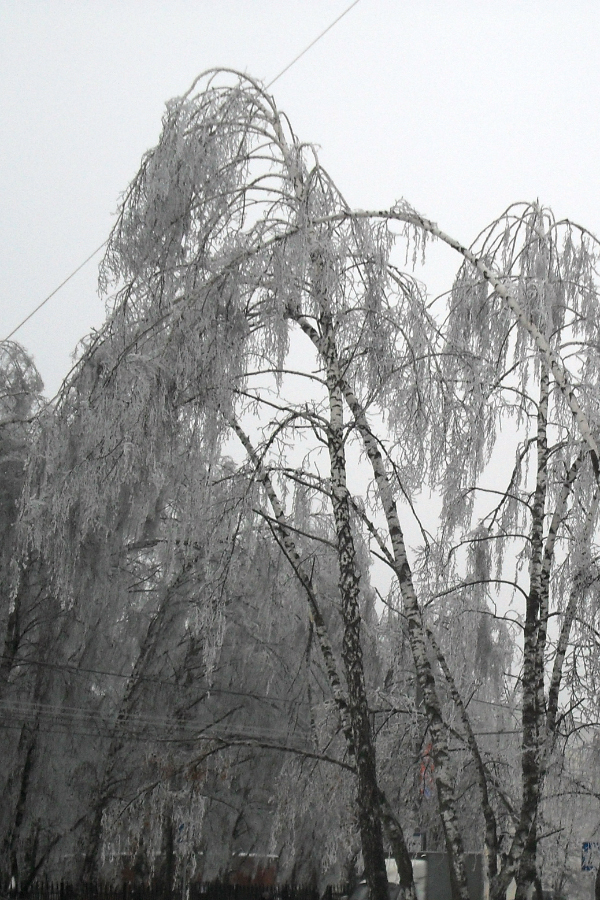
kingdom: Plantae
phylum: Tracheophyta
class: Magnoliopsida
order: Fagales
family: Betulaceae
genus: Betula
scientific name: Betula pendula
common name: Silver birch
